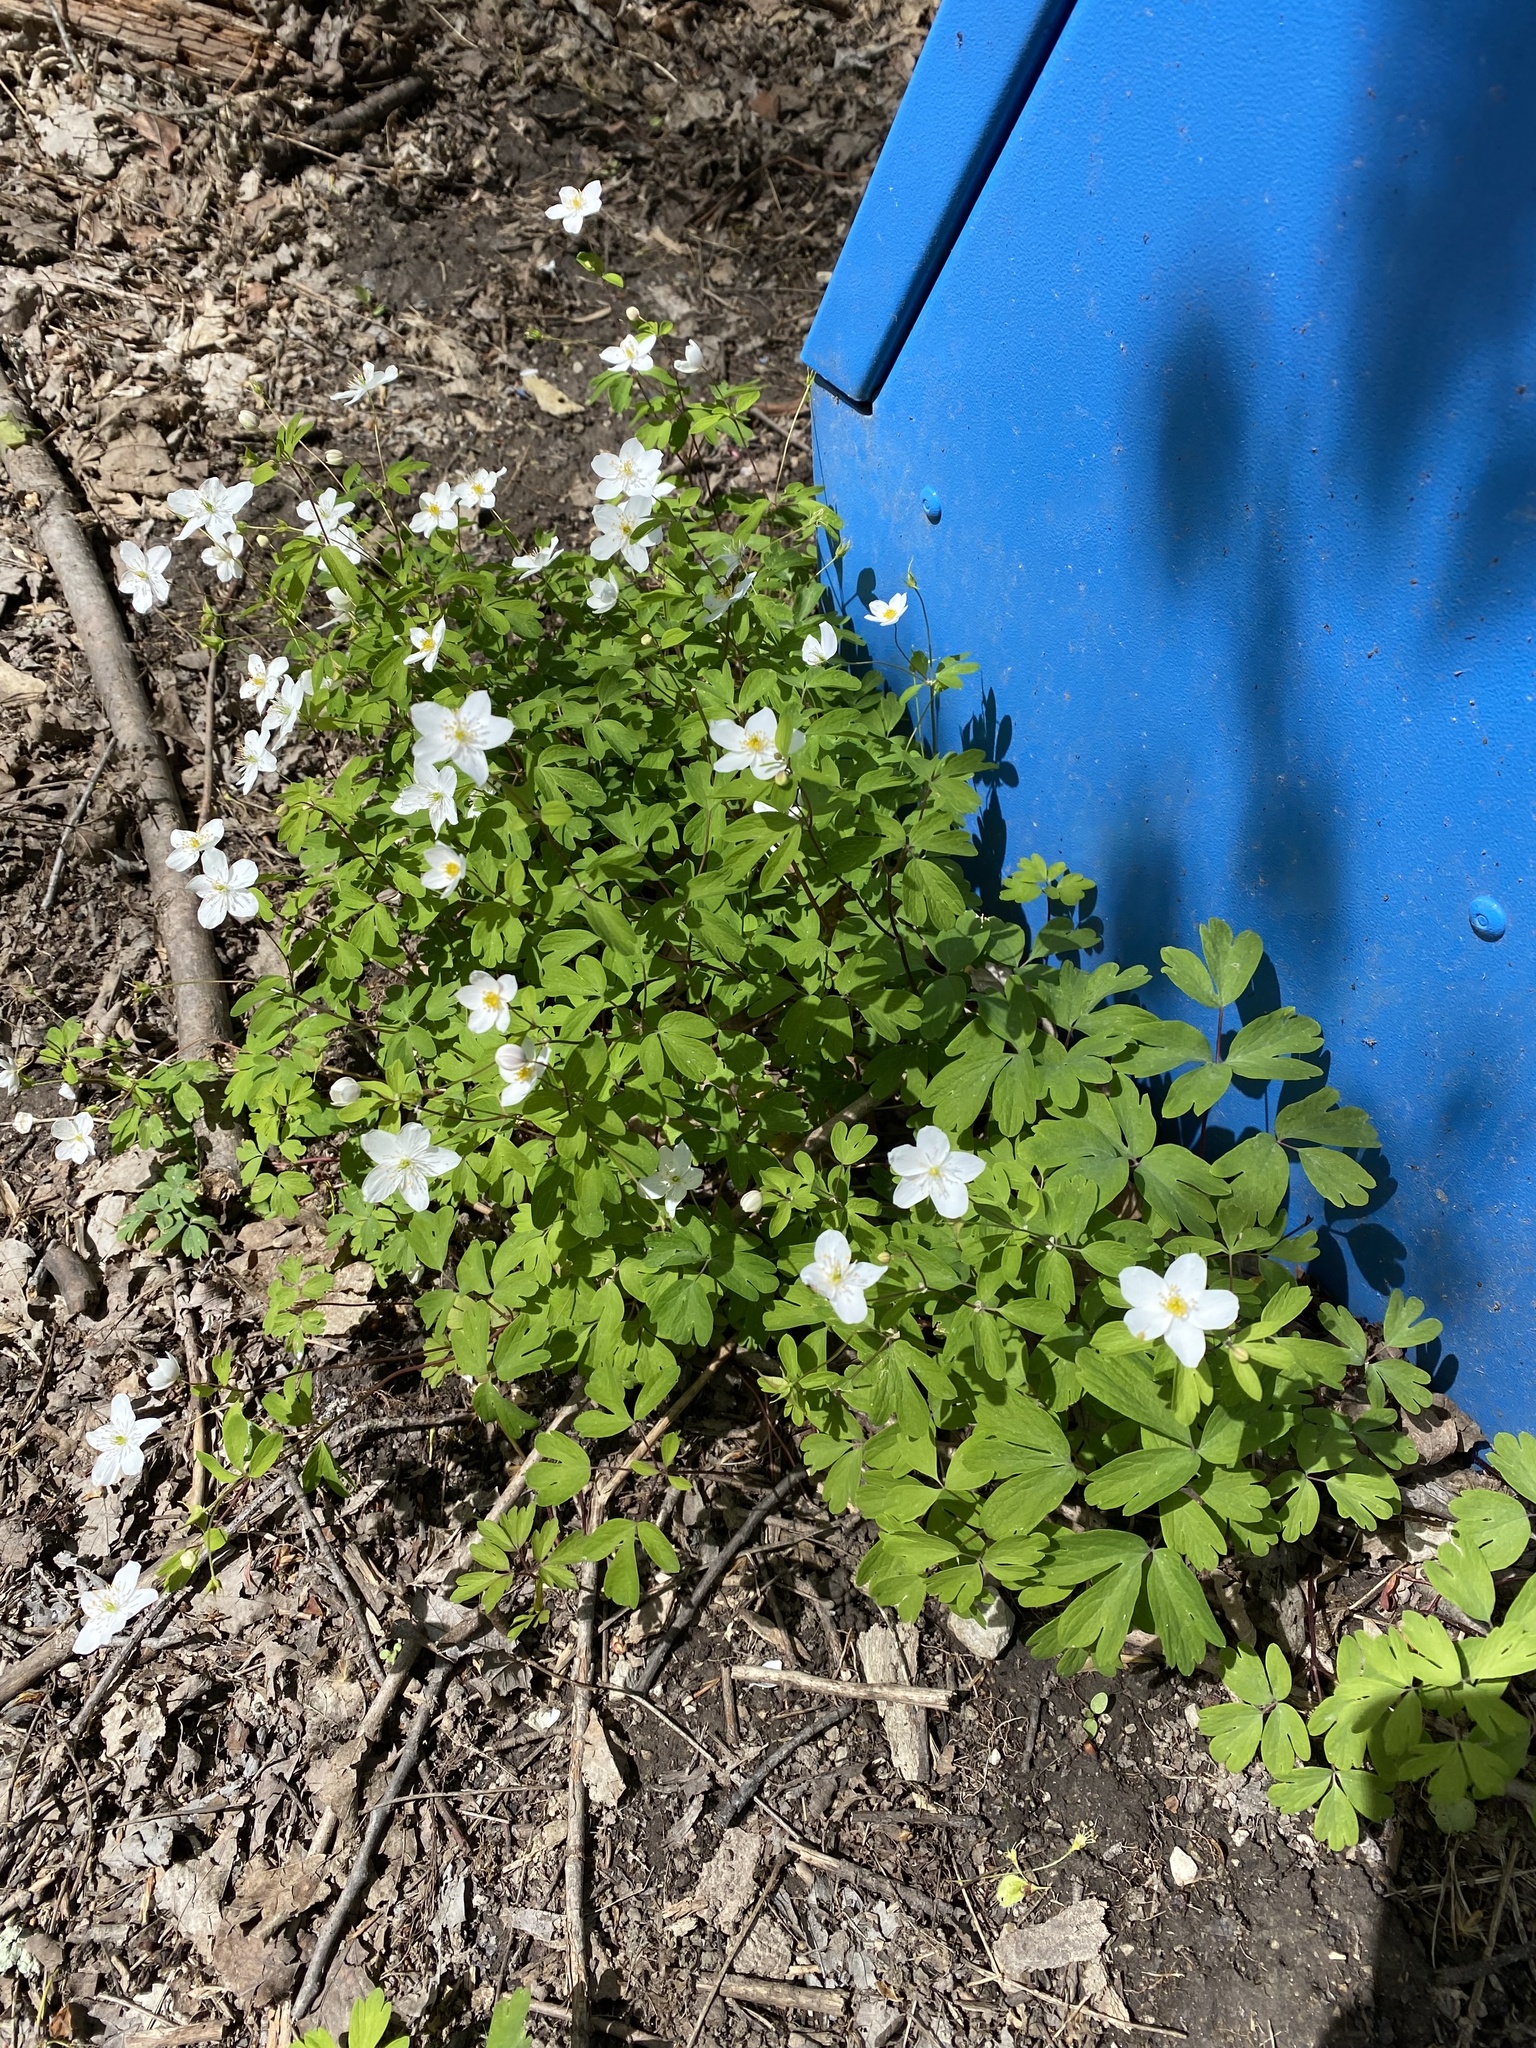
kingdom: Plantae
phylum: Tracheophyta
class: Magnoliopsida
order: Ranunculales
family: Ranunculaceae
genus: Enemion
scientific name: Enemion biternatum
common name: Eastern false rue-anemone
